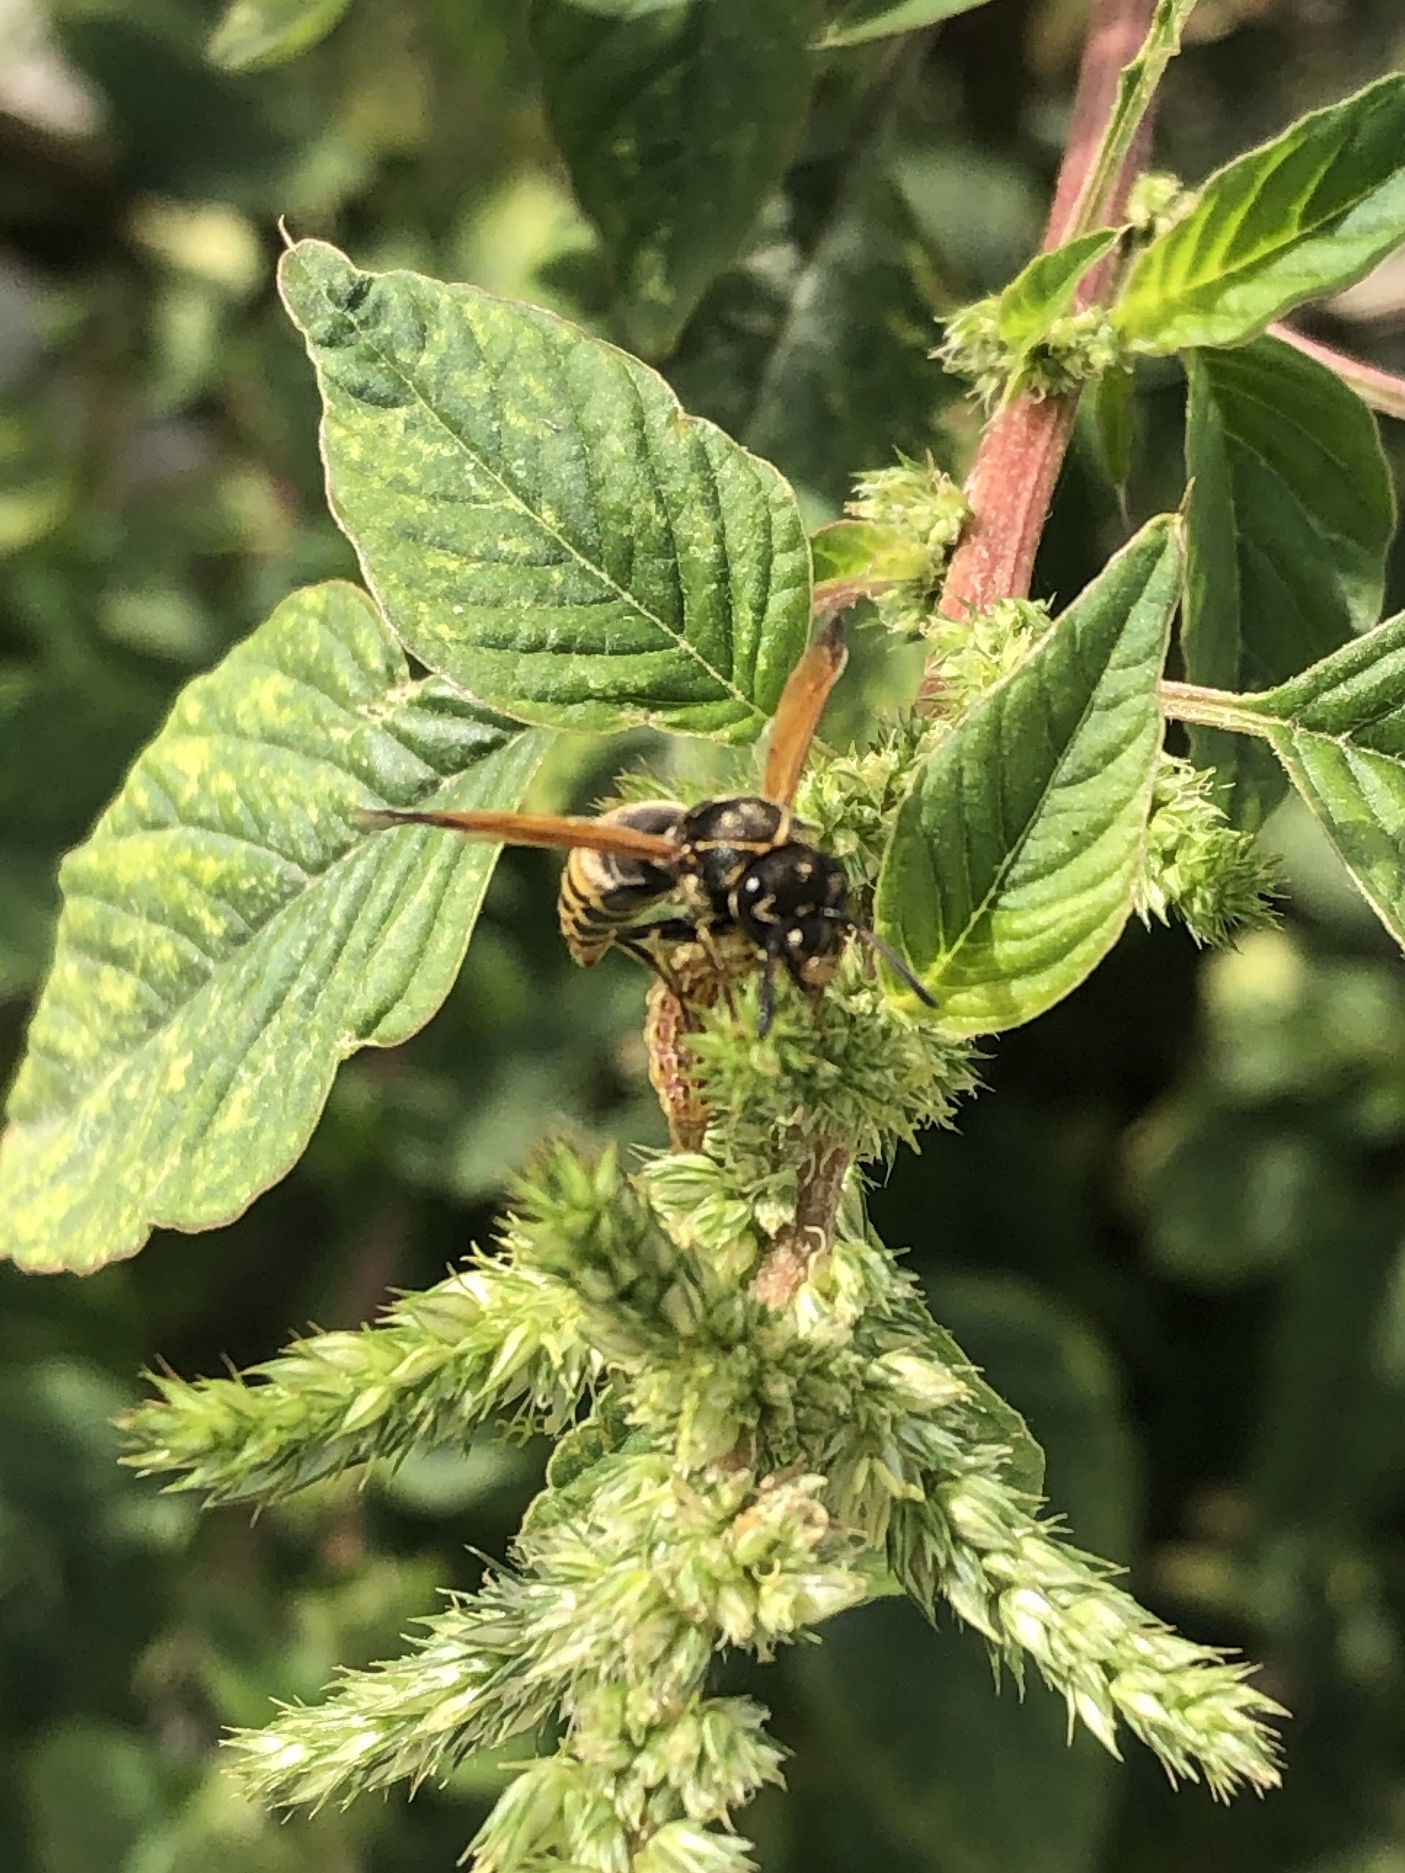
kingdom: Animalia
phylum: Arthropoda
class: Insecta
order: Hymenoptera
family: Eumenidae
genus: Pachodynerus
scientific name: Pachodynerus nasidens
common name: Key hole wasp
